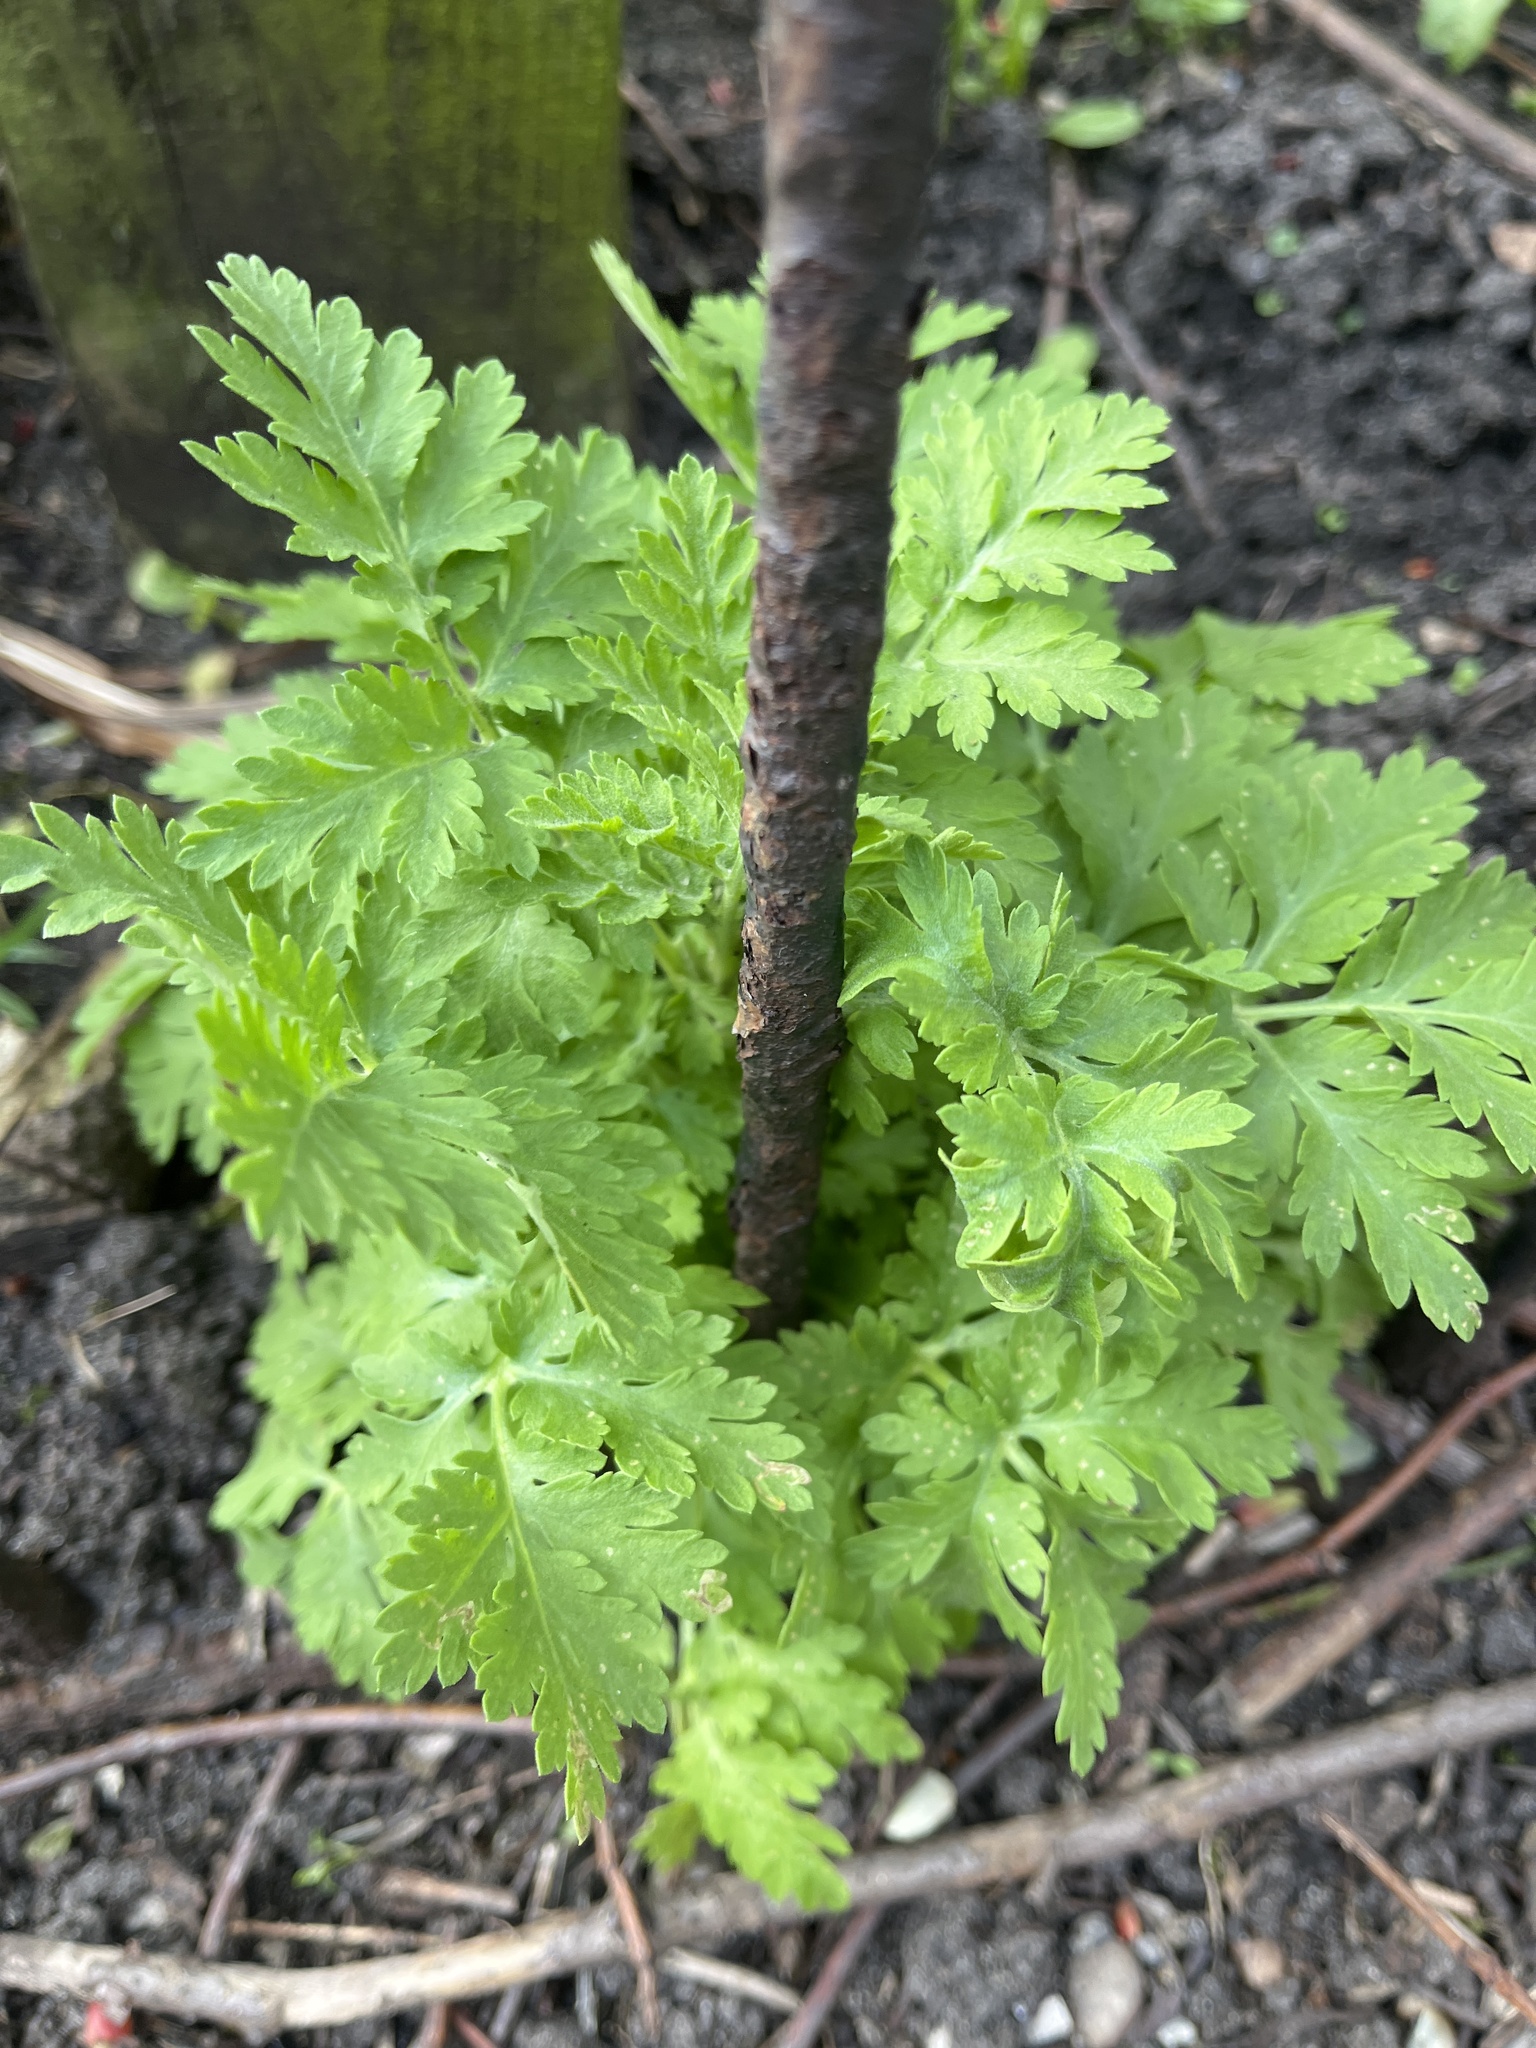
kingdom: Plantae
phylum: Tracheophyta
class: Magnoliopsida
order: Asterales
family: Asteraceae
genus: Tanacetum
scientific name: Tanacetum parthenium
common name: Feverfew
